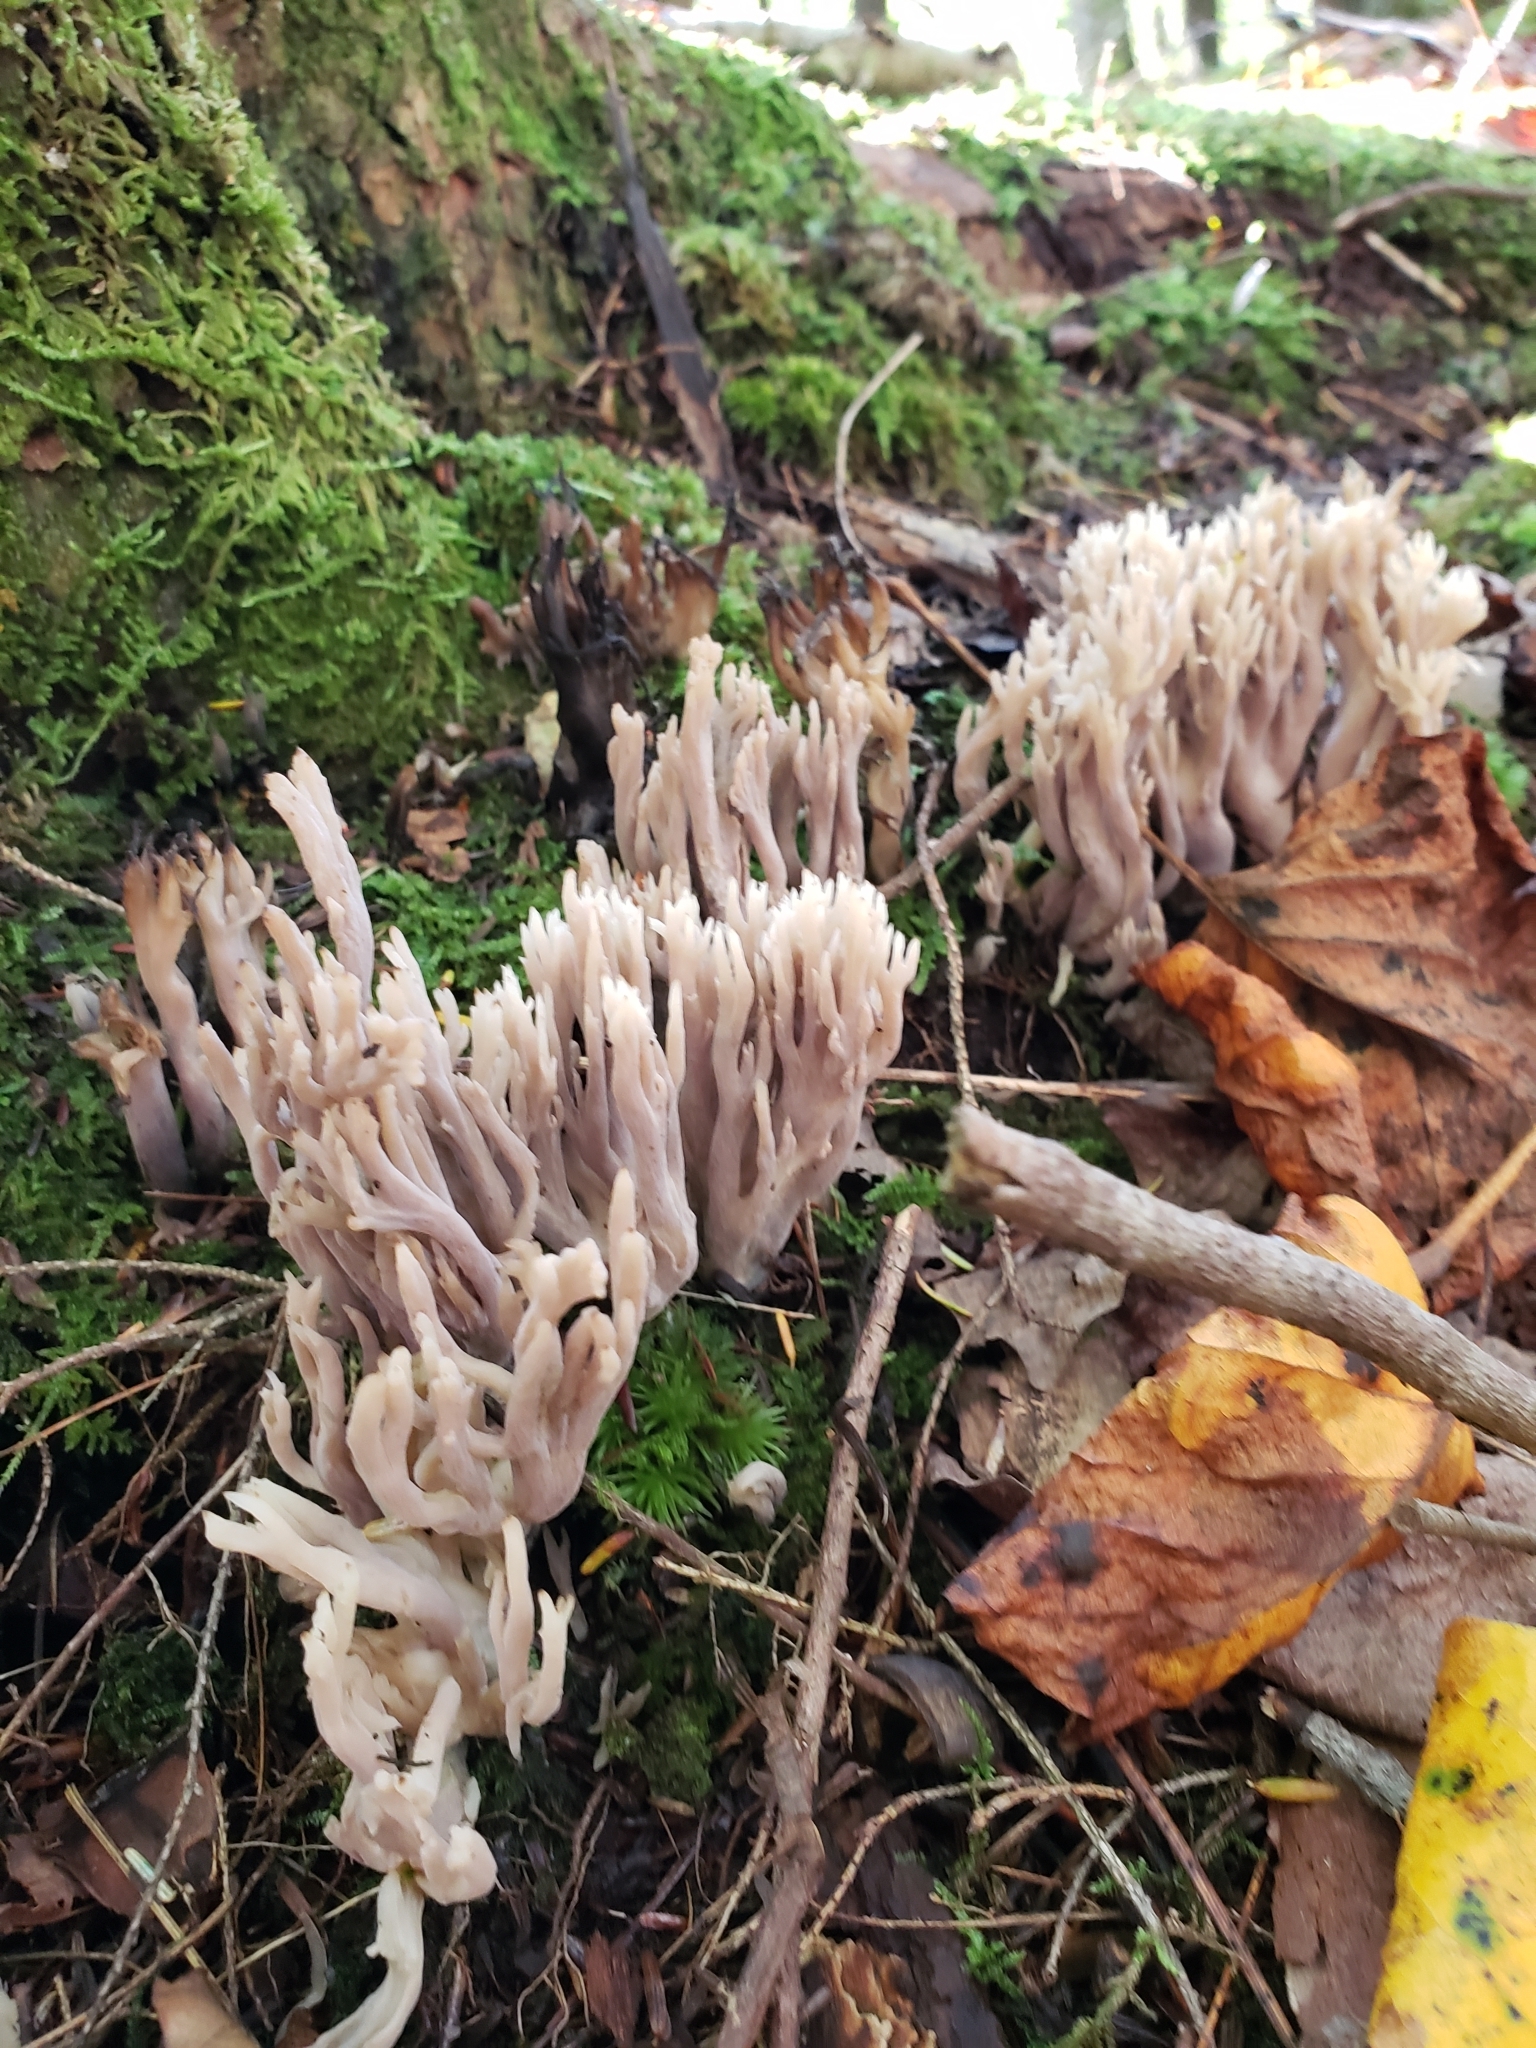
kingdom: Fungi
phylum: Basidiomycota
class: Agaricomycetes
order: Cantharellales
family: Hydnaceae
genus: Clavulina
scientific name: Clavulina coralloides
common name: Crested coral
